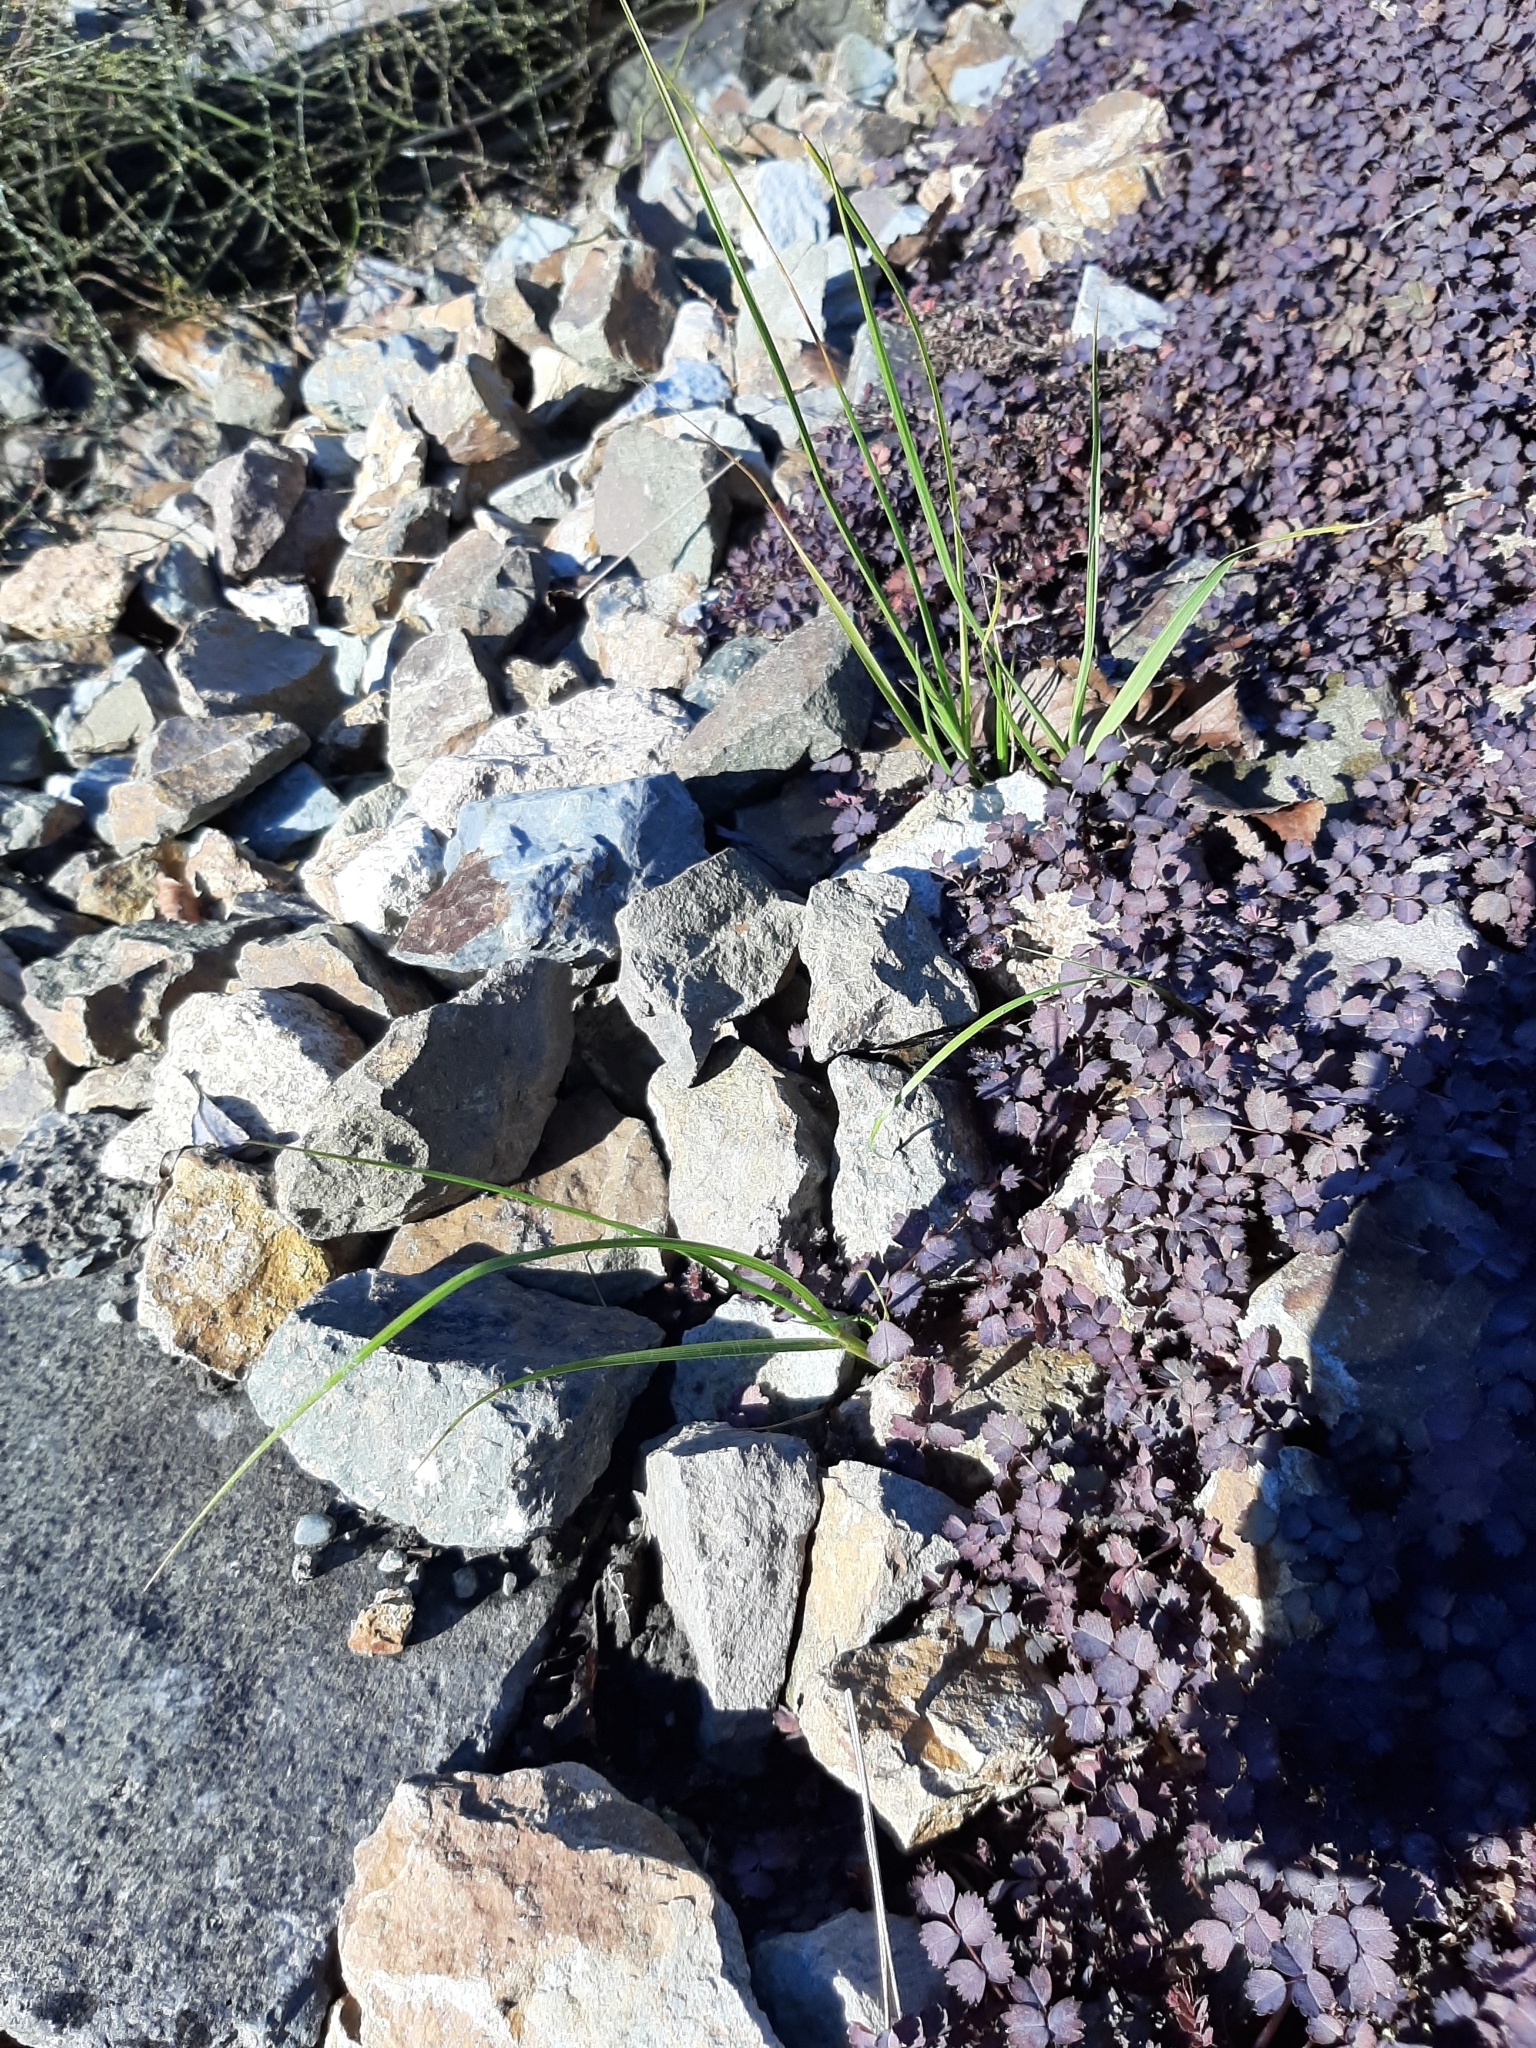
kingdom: Plantae
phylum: Tracheophyta
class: Liliopsida
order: Poales
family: Poaceae
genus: Austroderia
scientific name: Austroderia richardii
